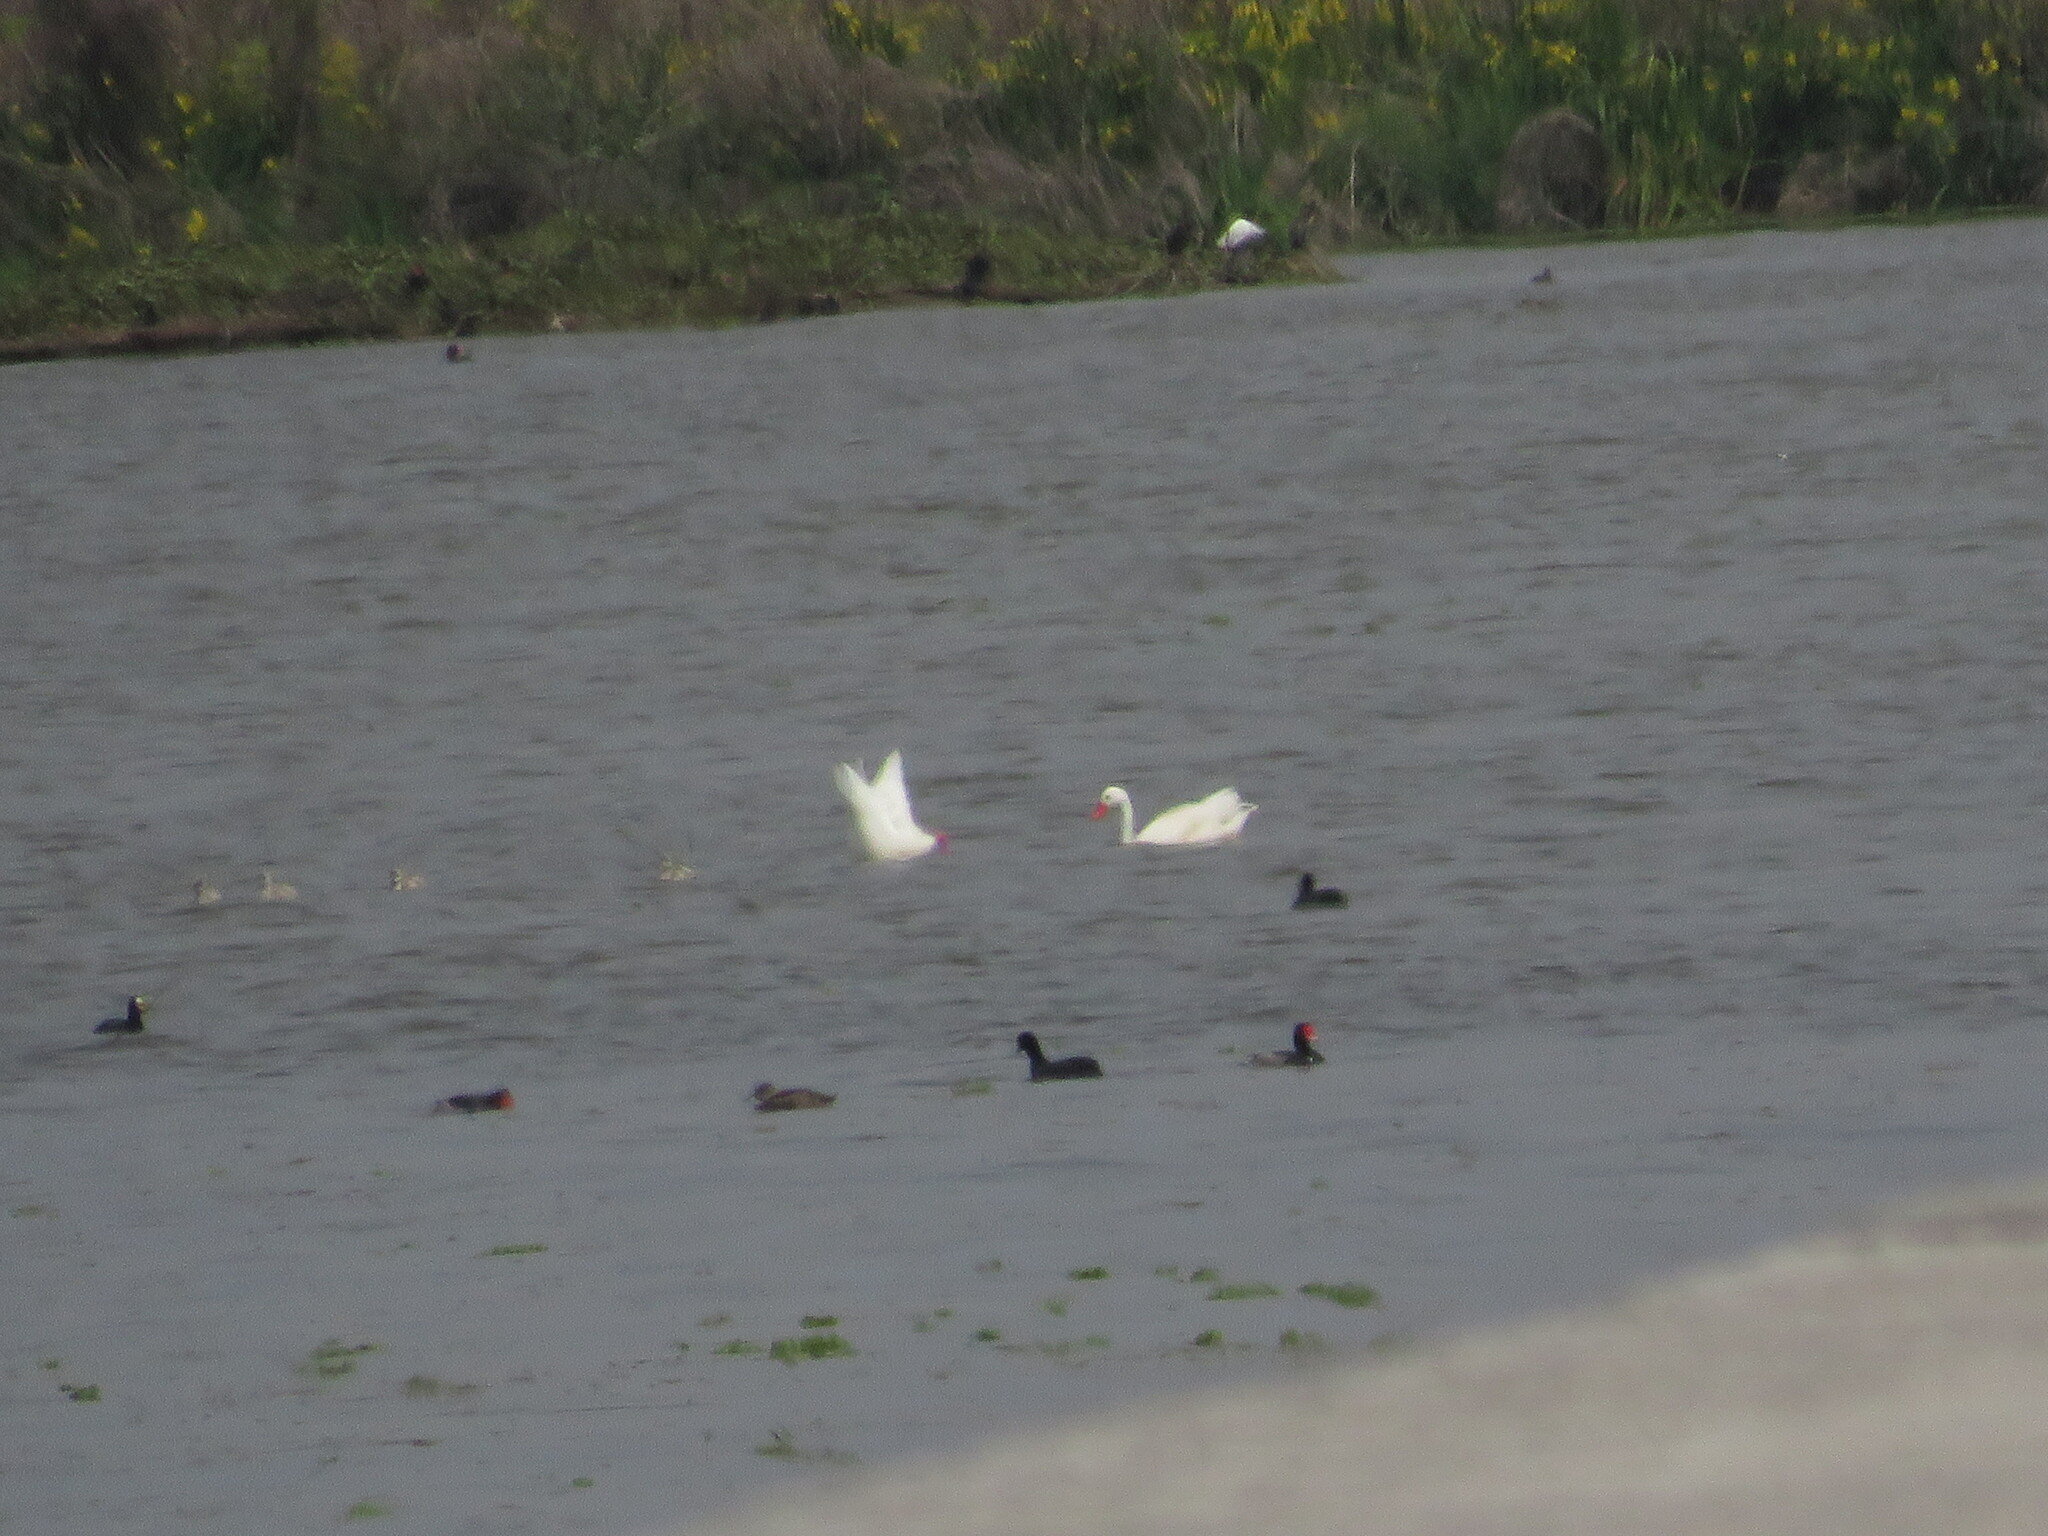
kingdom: Animalia
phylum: Chordata
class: Aves
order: Anseriformes
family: Anatidae
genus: Coscoroba
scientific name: Coscoroba coscoroba
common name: Coscoroba swan
